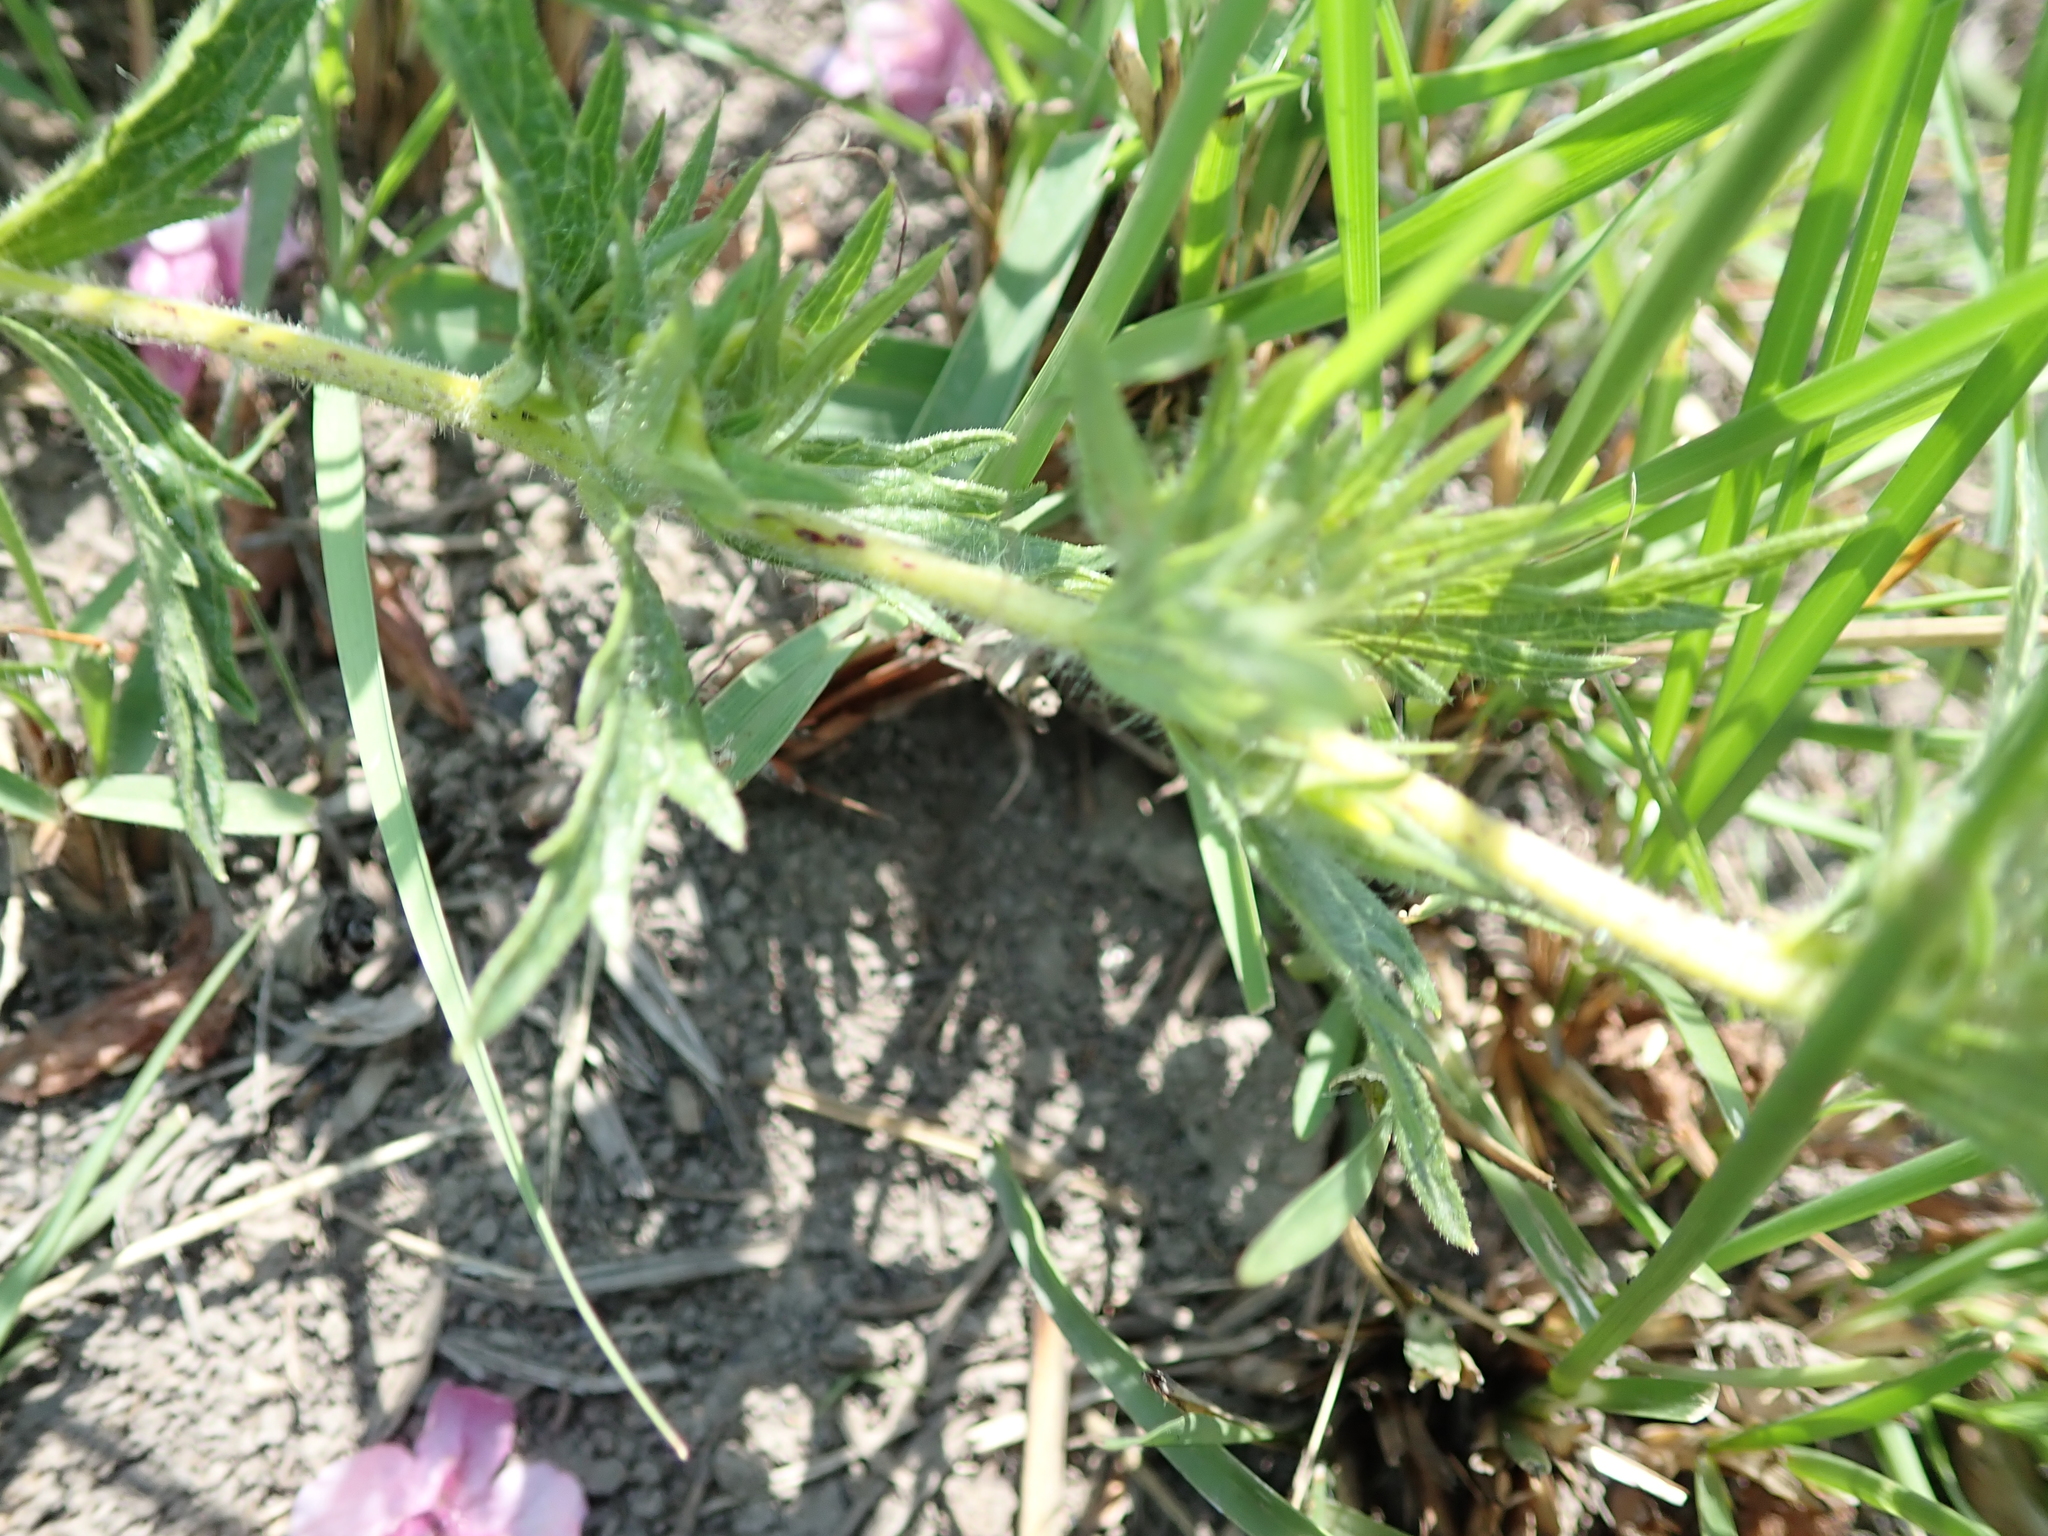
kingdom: Plantae
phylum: Tracheophyta
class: Magnoliopsida
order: Lamiales
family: Orobanchaceae
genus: Graderia
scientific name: Graderia scabra
